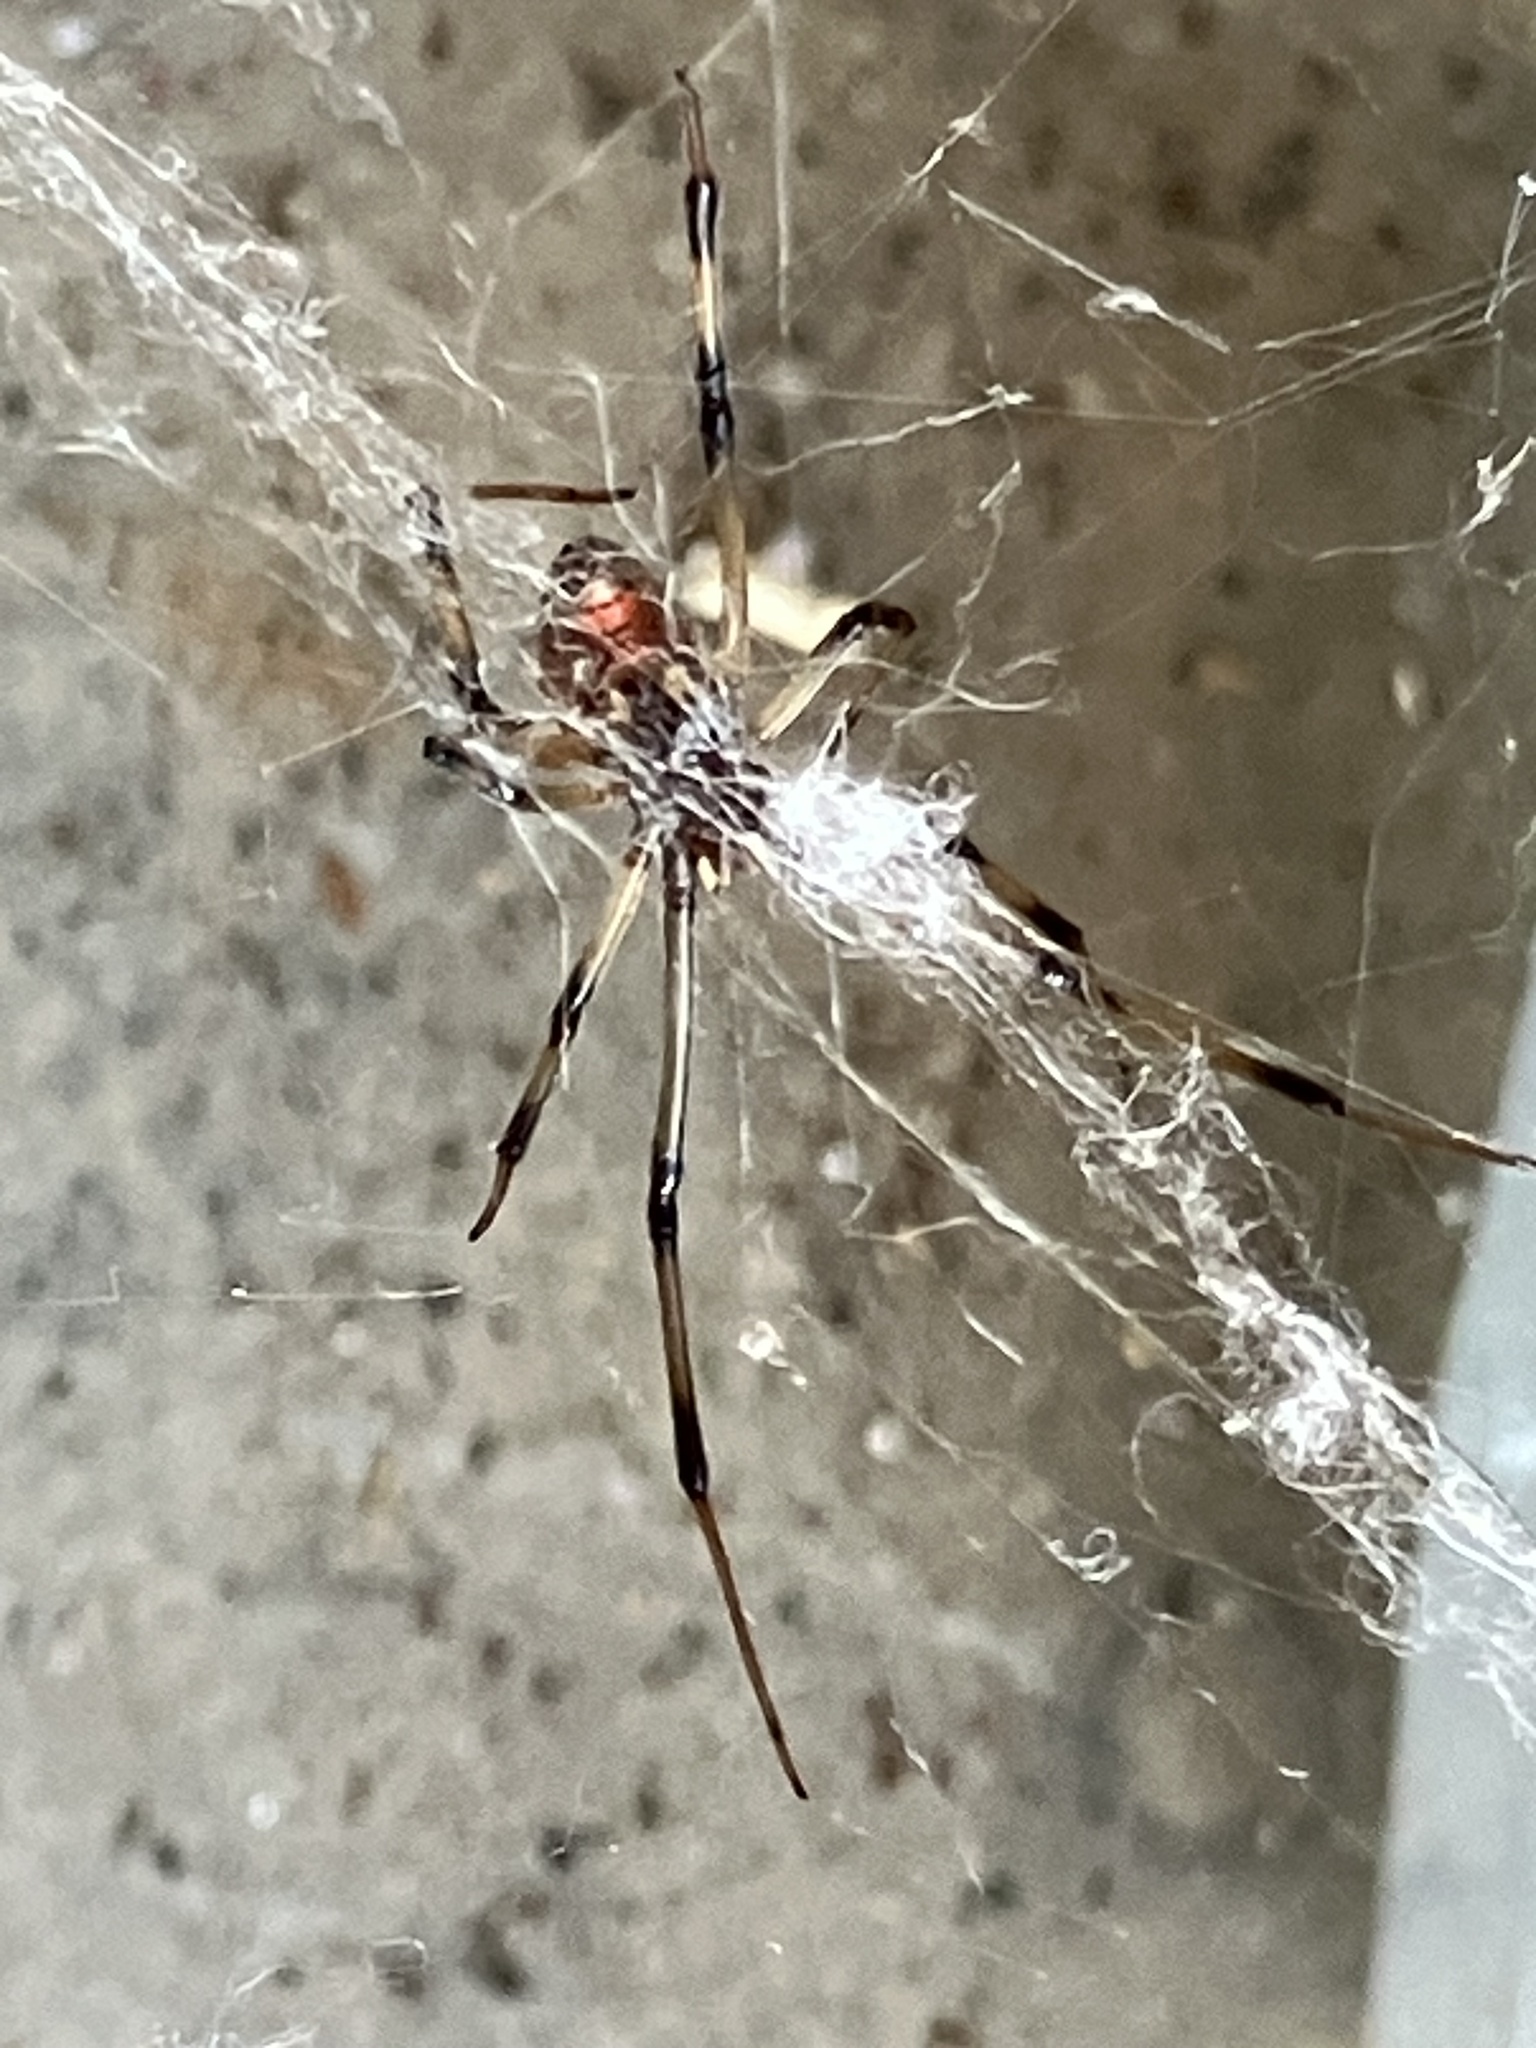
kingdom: Animalia
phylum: Arthropoda
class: Arachnida
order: Araneae
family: Theridiidae
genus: Latrodectus
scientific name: Latrodectus geometricus
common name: Brown widow spider
